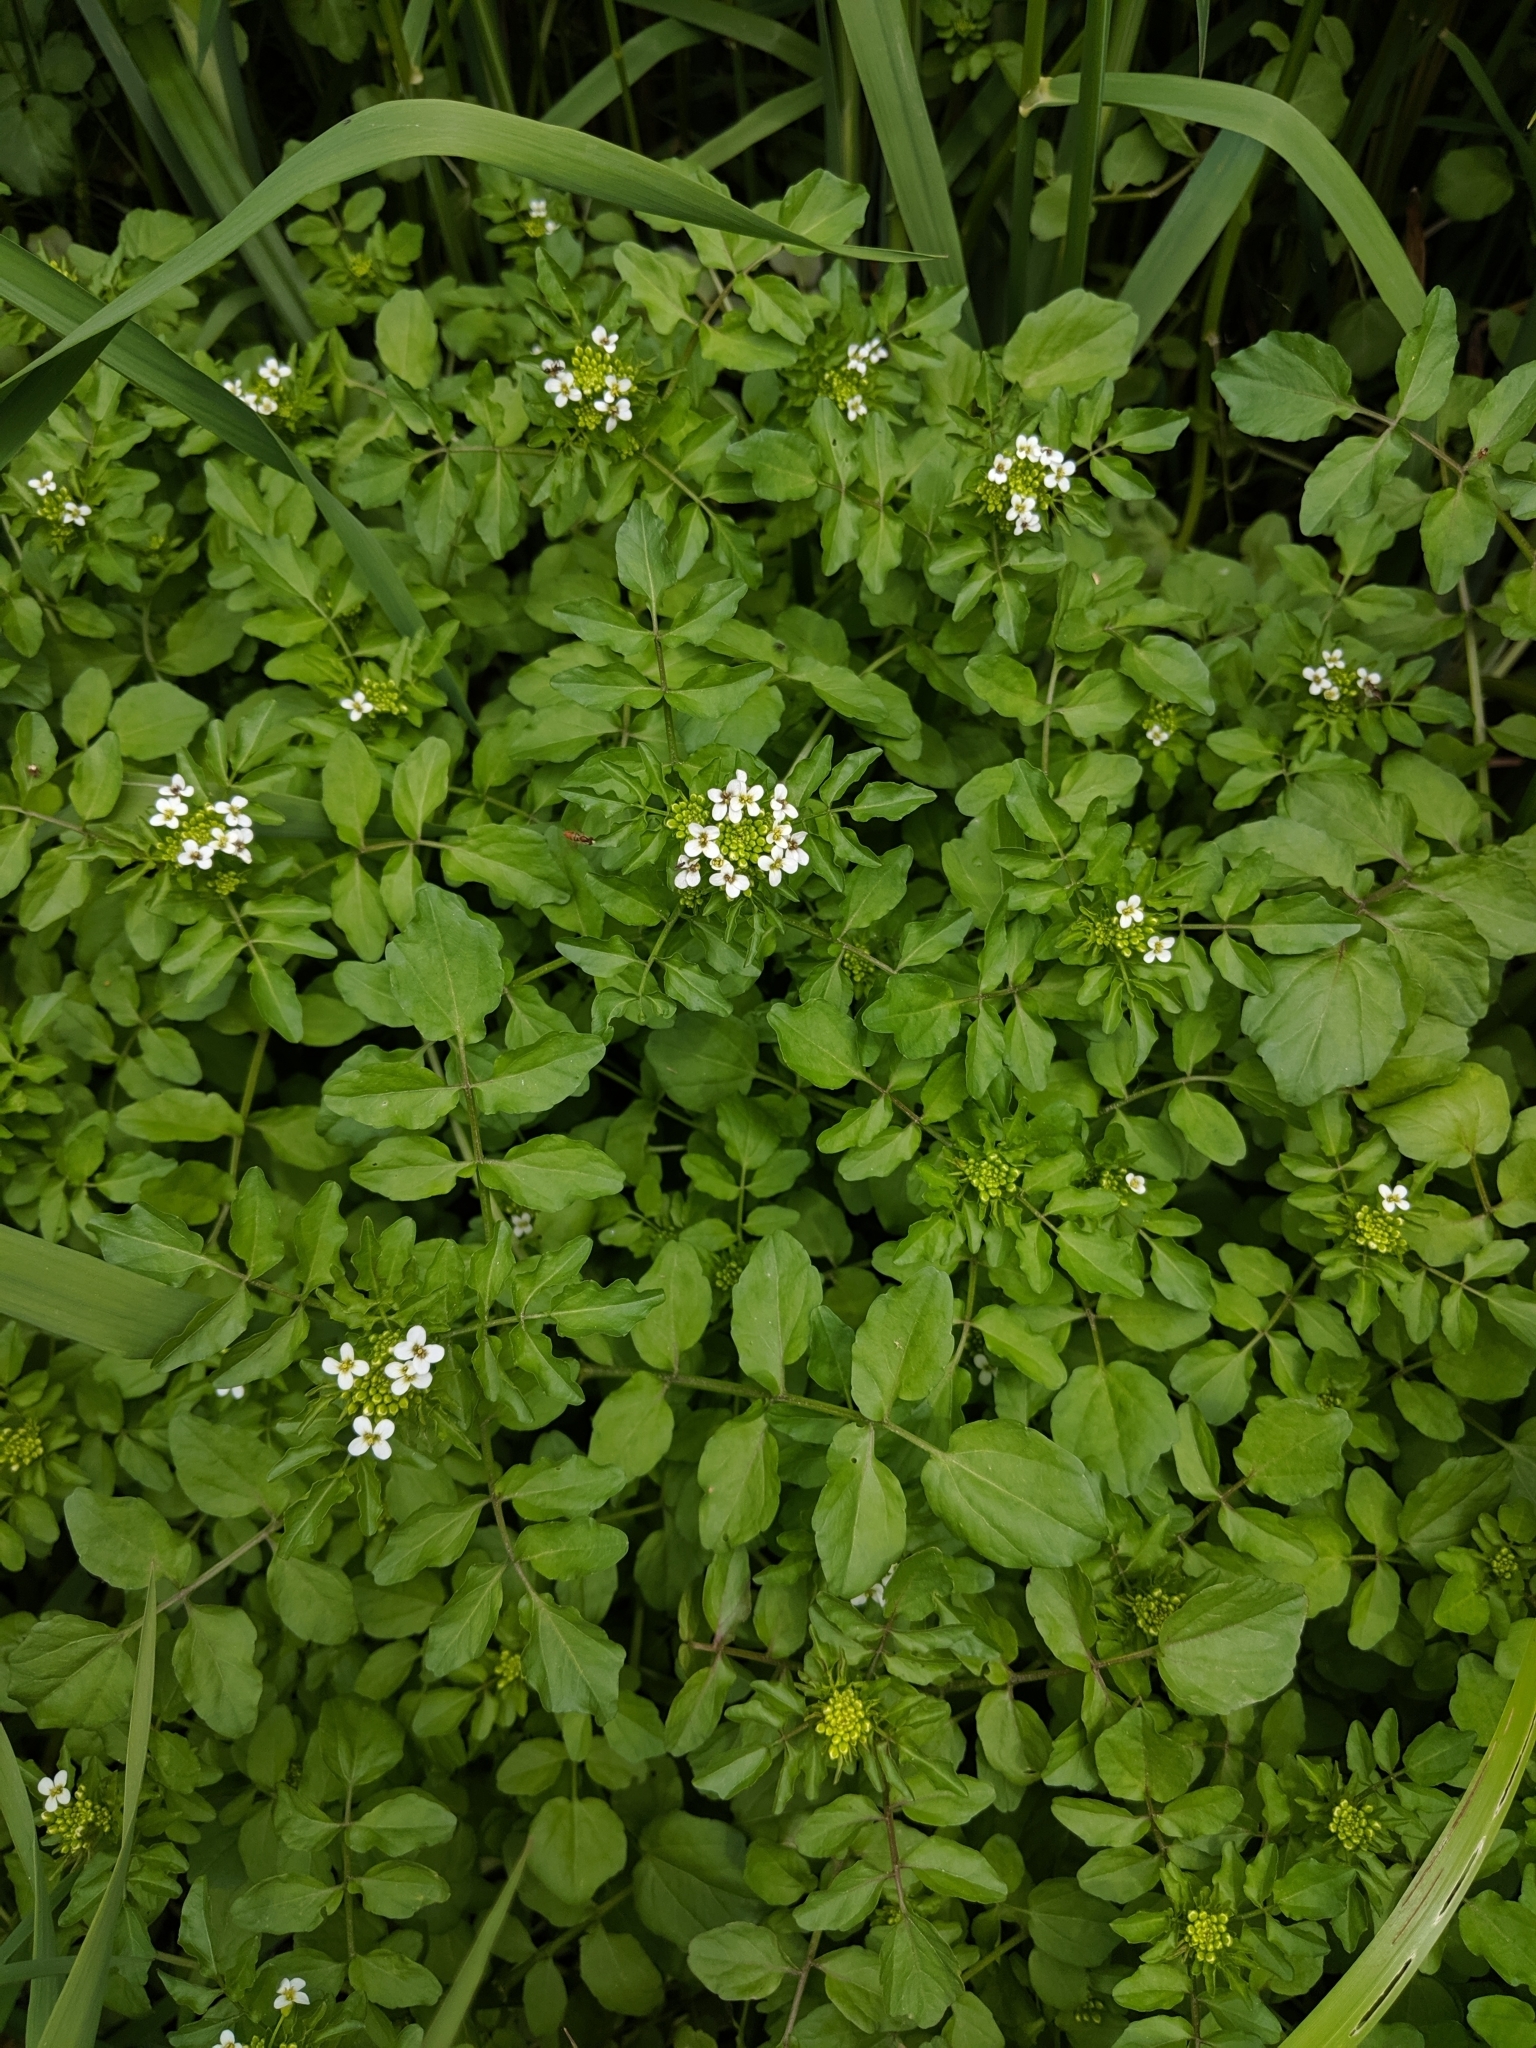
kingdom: Plantae
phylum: Tracheophyta
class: Magnoliopsida
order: Brassicales
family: Brassicaceae
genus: Nasturtium
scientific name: Nasturtium officinale
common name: Watercress
